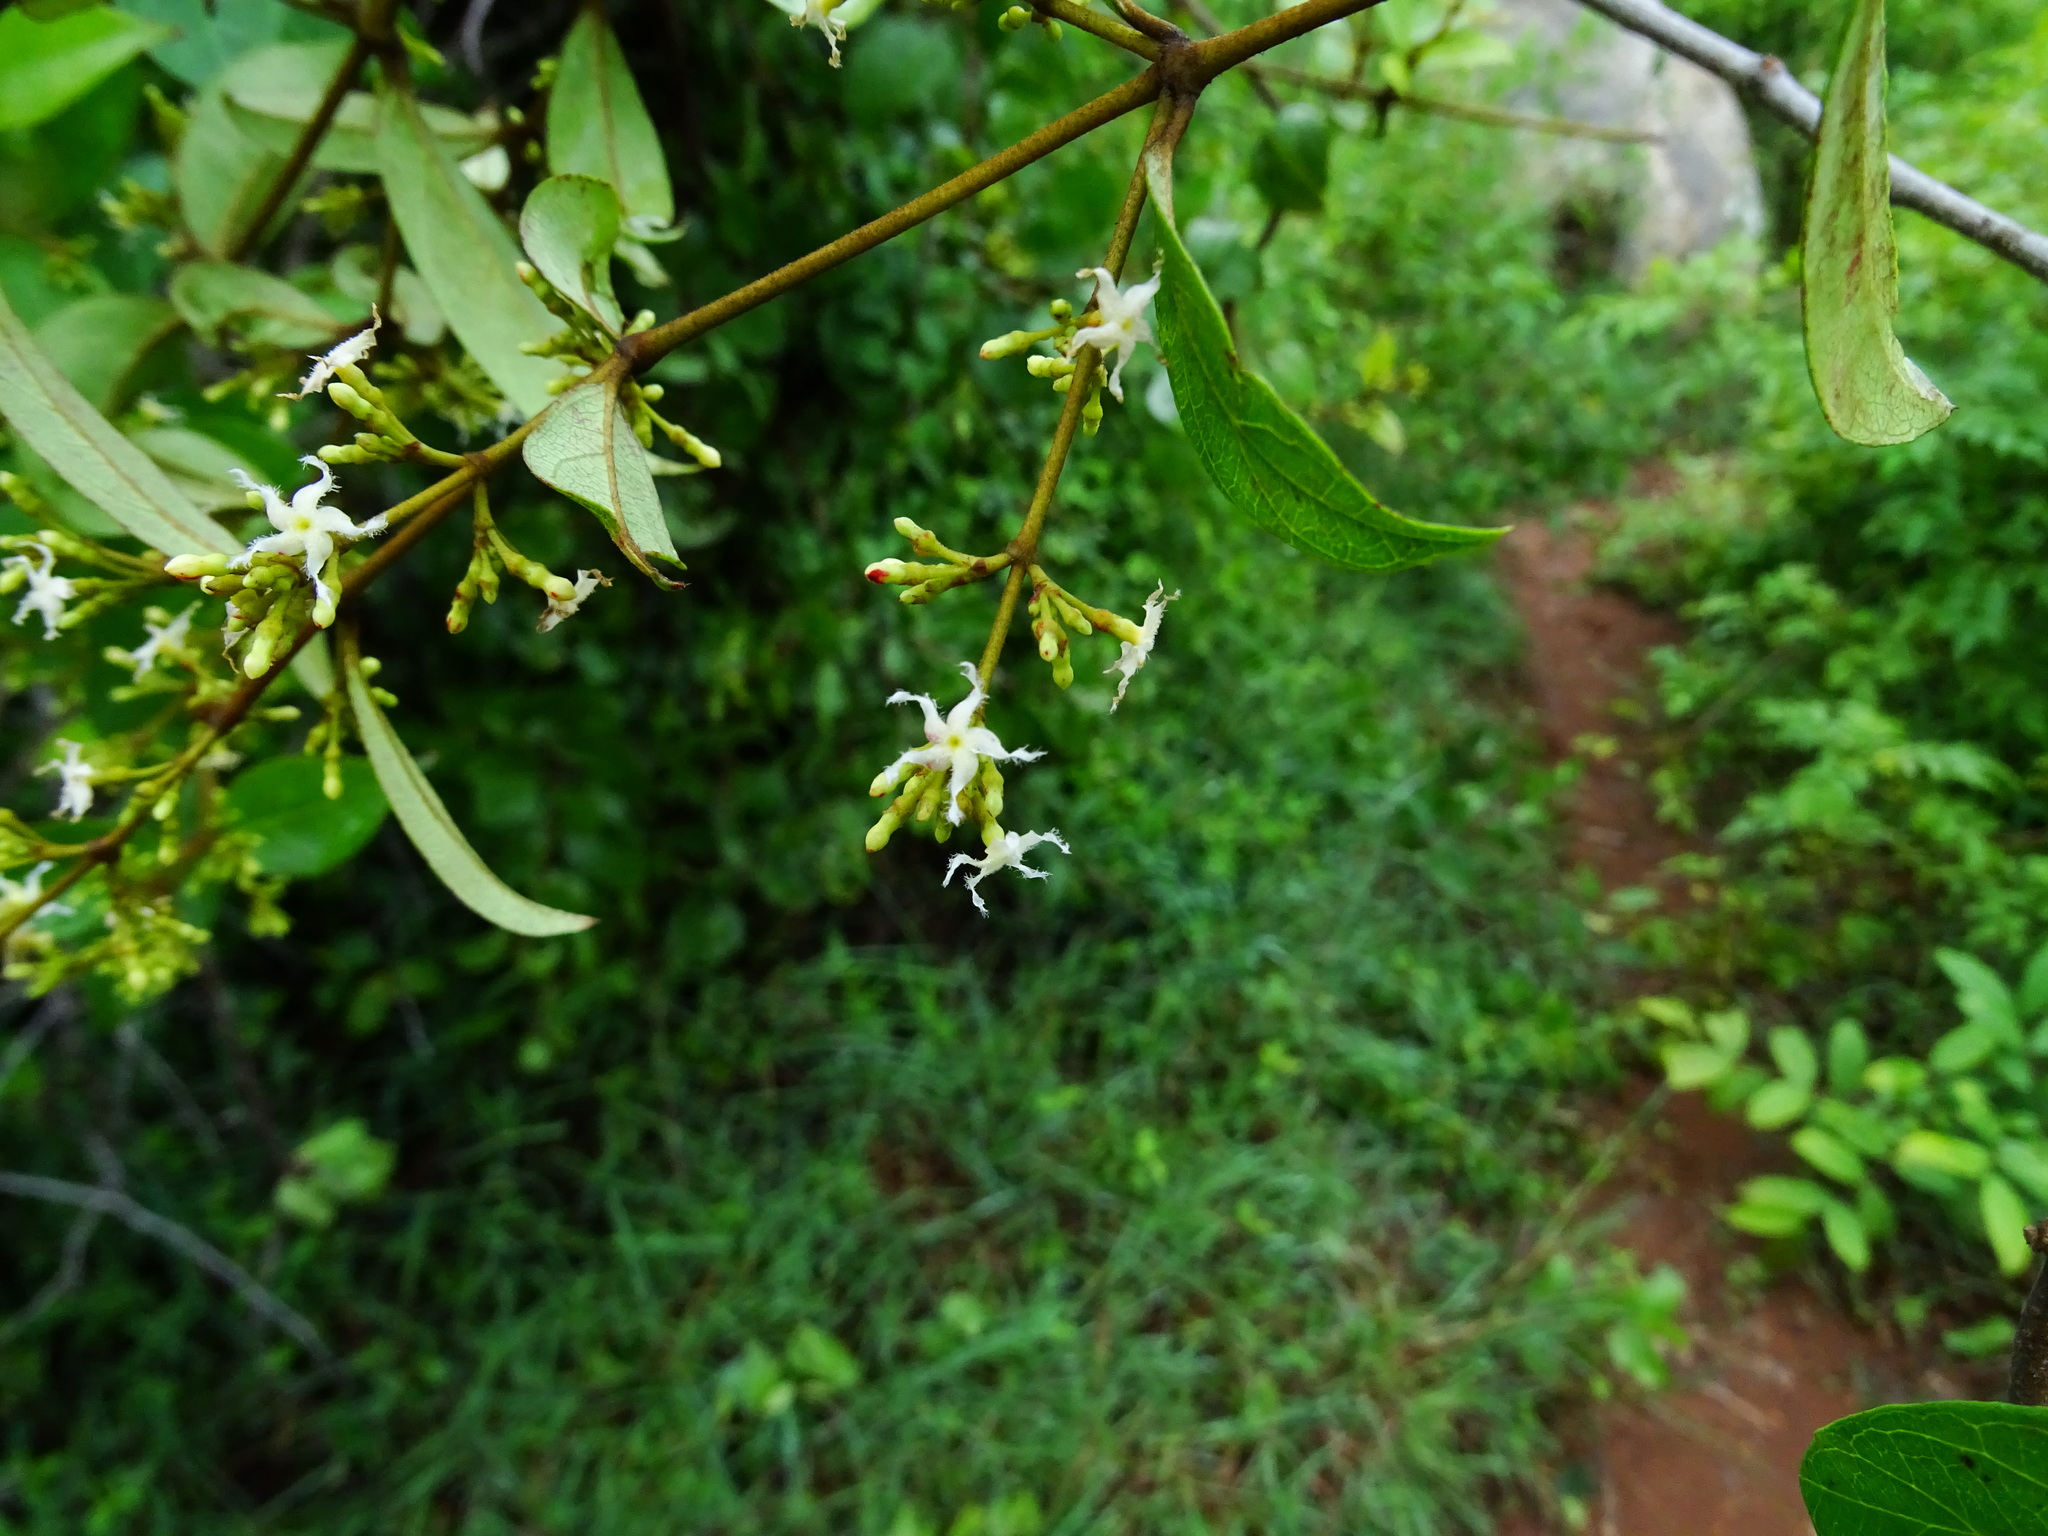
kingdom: Plantae
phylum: Tracheophyta
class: Magnoliopsida
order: Gentianales
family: Apocynaceae
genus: Ichnocarpus
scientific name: Ichnocarpus frutescens
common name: Ichnocarpus
